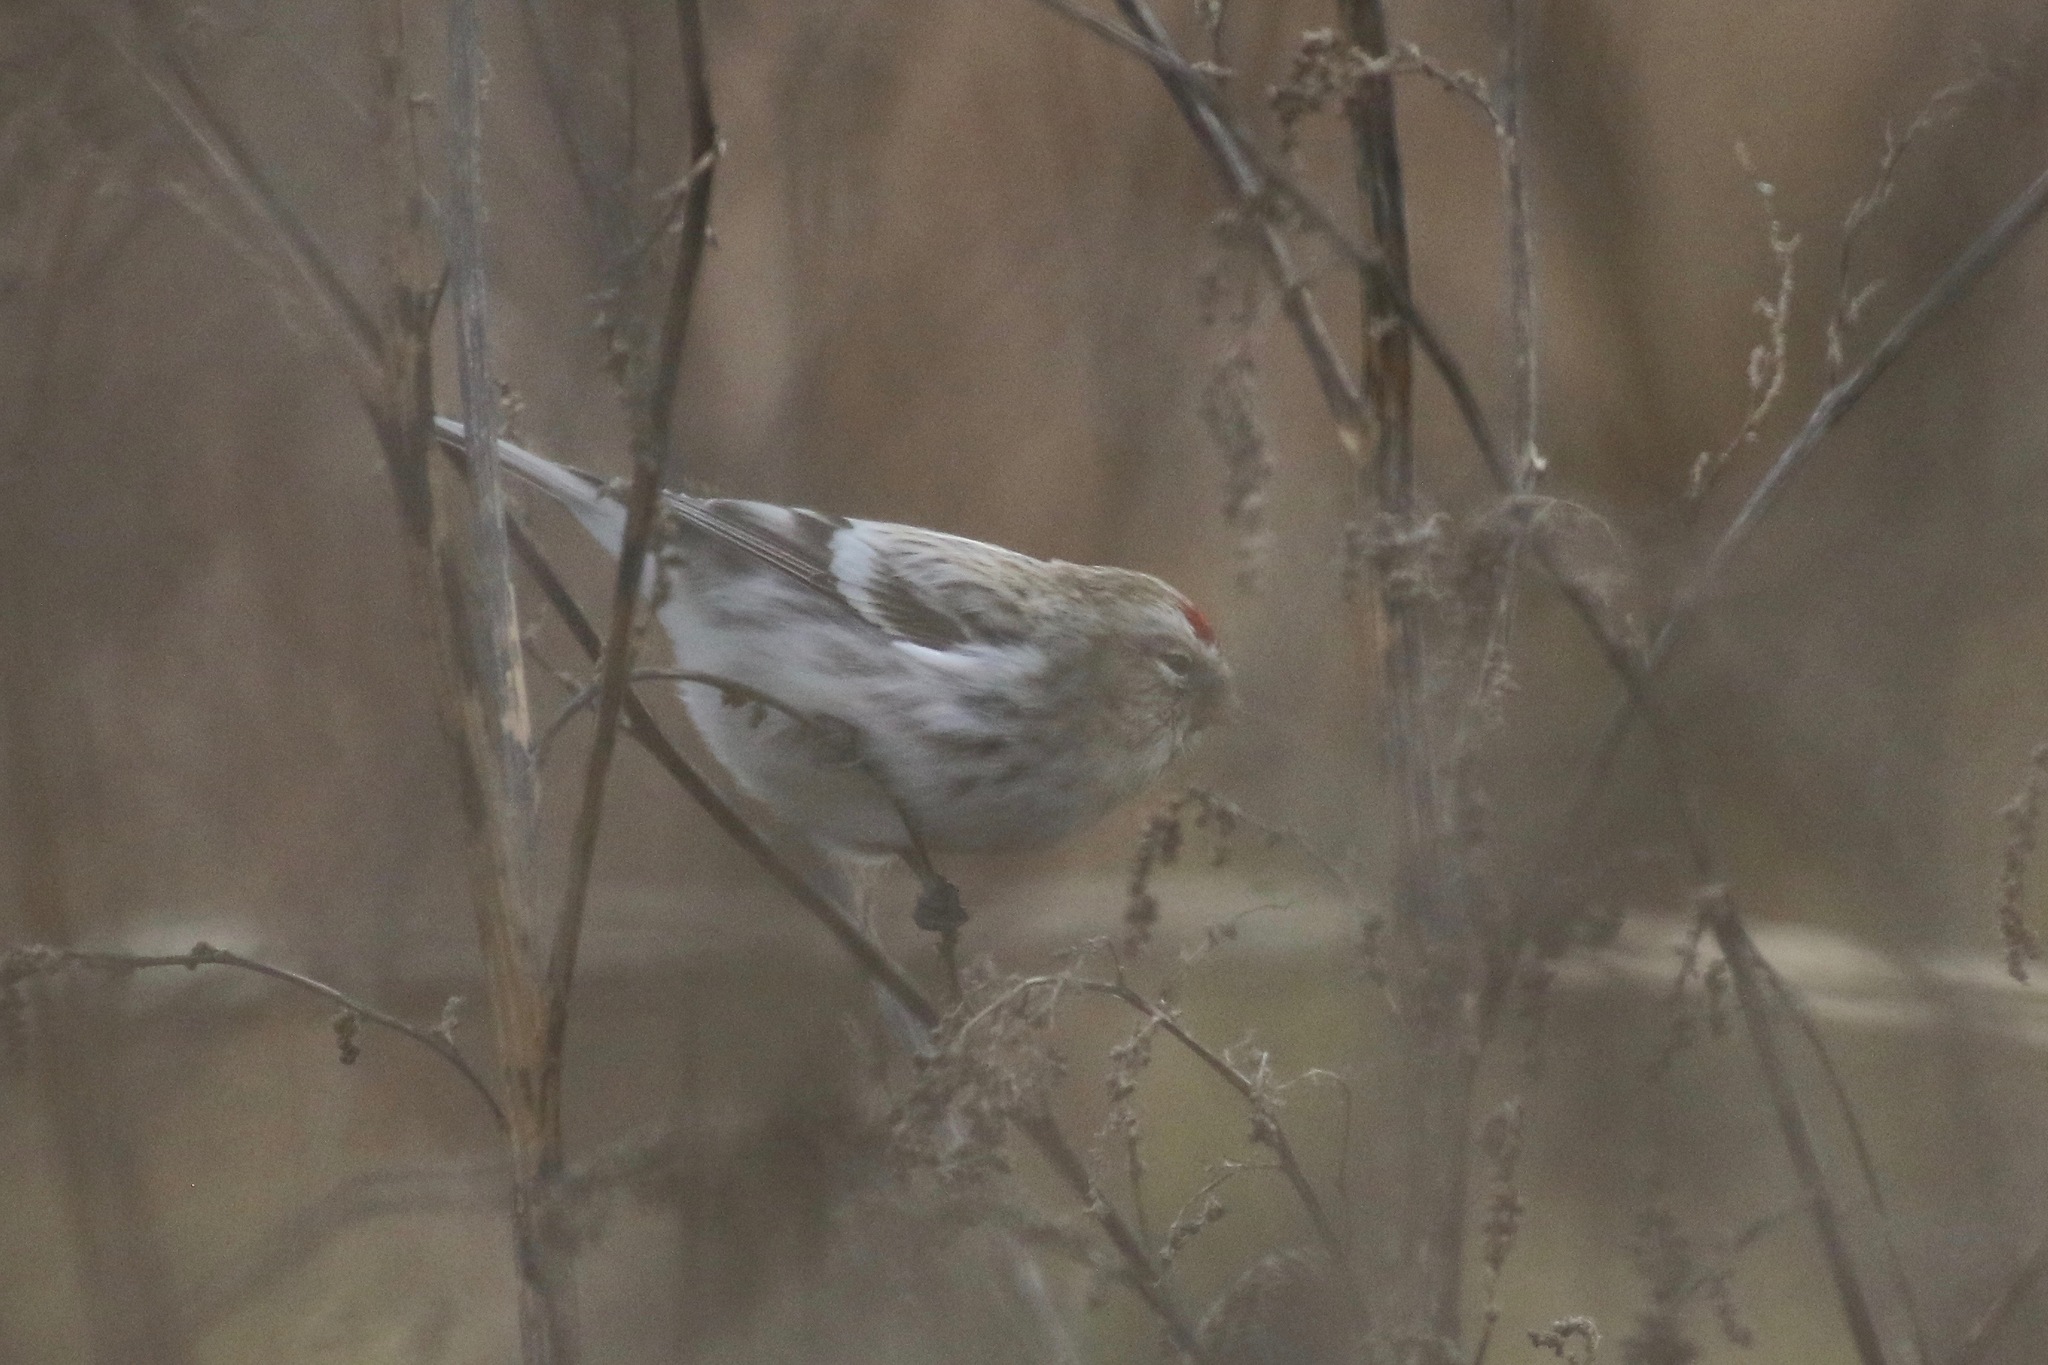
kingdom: Animalia
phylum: Chordata
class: Aves
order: Passeriformes
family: Fringillidae
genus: Acanthis
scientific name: Acanthis hornemanni
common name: Arctic redpoll
